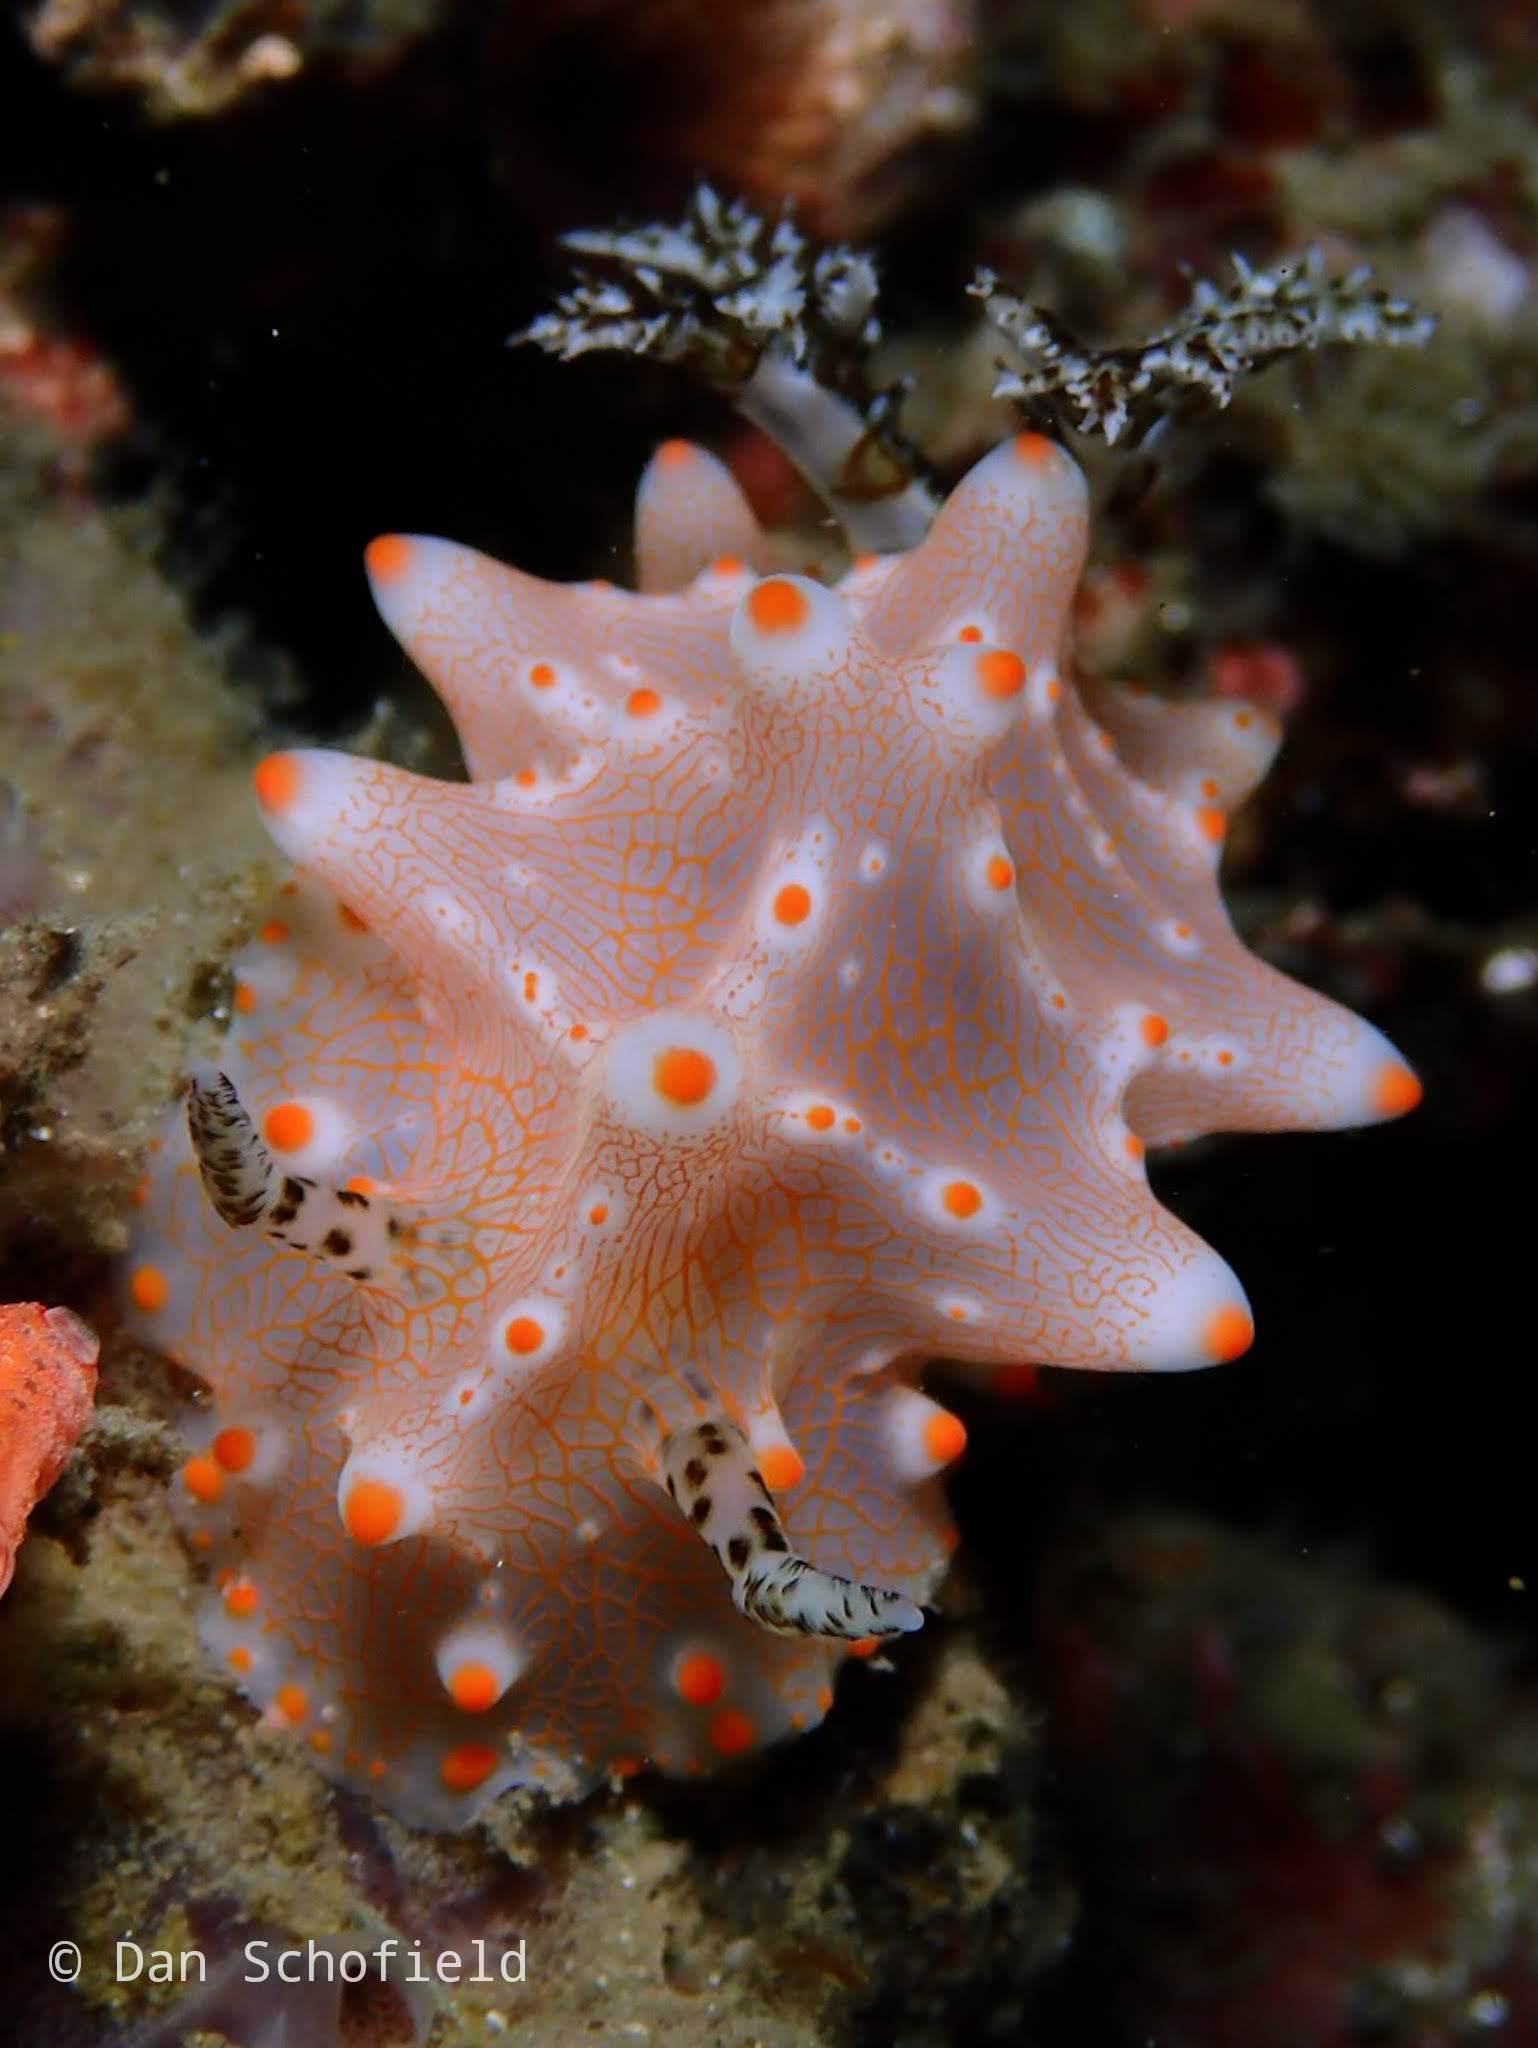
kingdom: Animalia
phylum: Mollusca
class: Gastropoda
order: Nudibranchia
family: Discodorididae
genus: Halgerda
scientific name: Halgerda batangas
